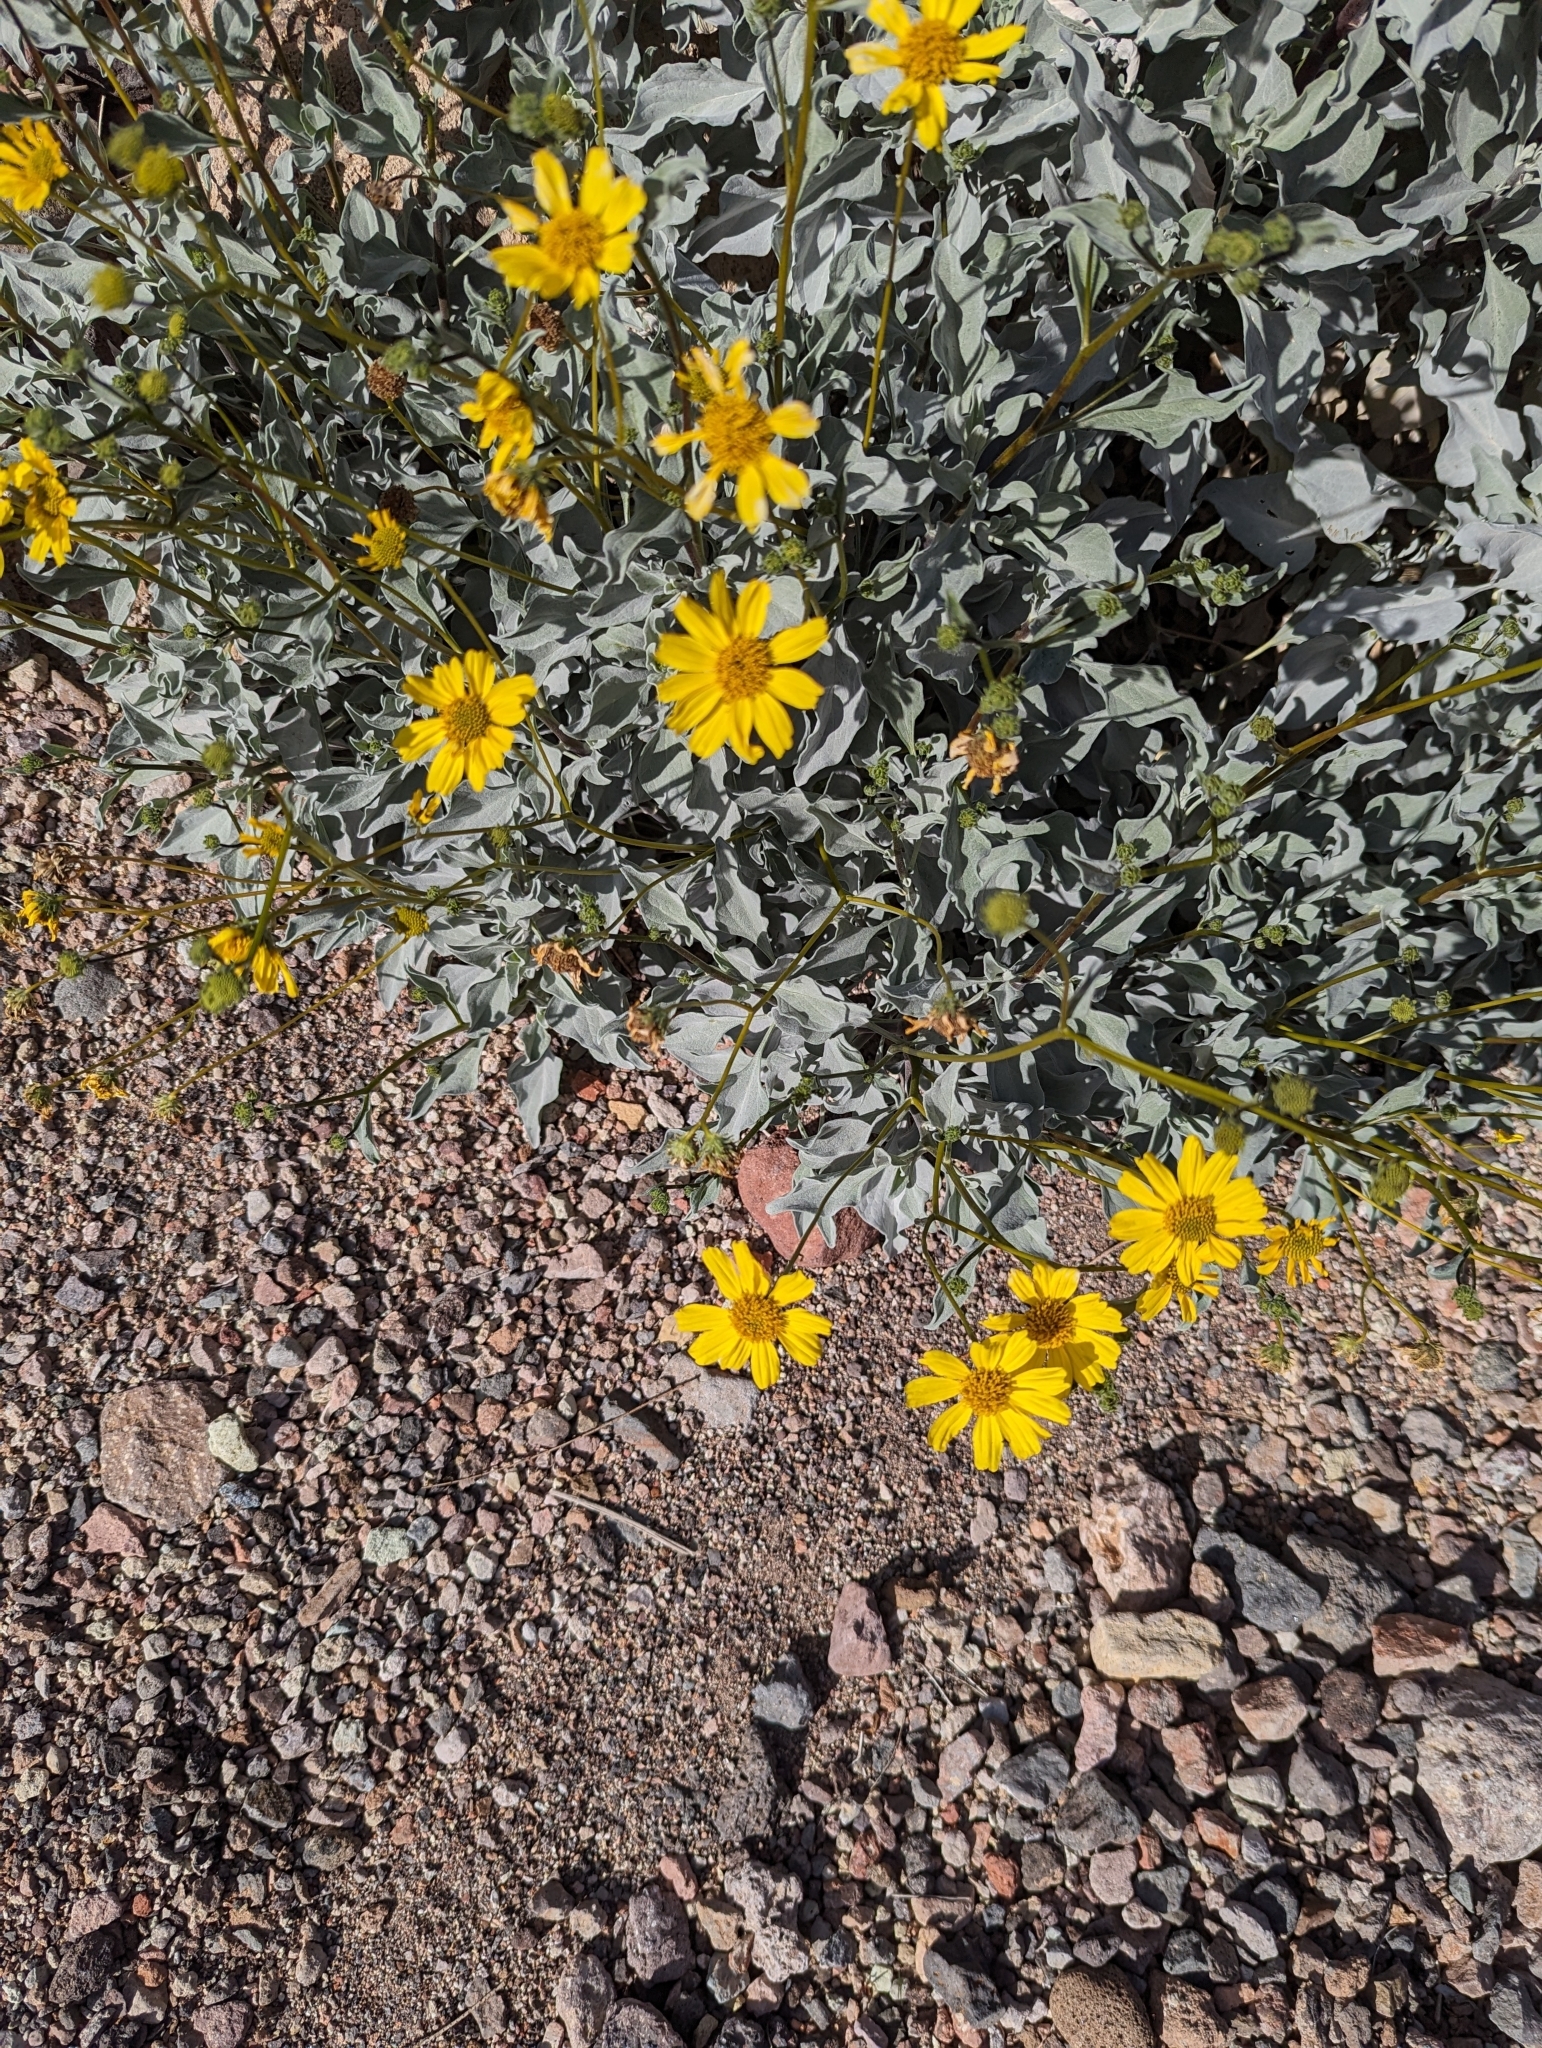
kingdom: Plantae
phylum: Tracheophyta
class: Magnoliopsida
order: Asterales
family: Asteraceae
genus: Encelia
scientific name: Encelia farinosa
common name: Brittlebush
